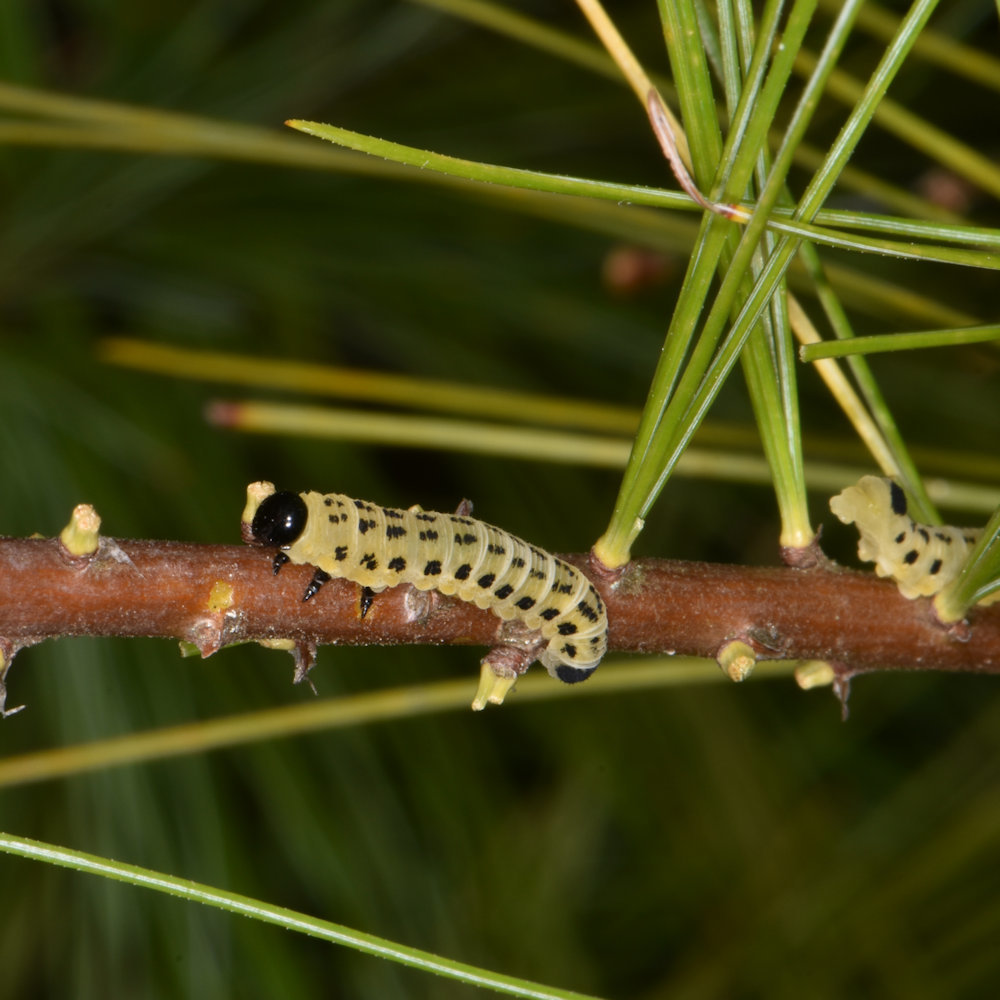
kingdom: Animalia
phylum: Arthropoda
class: Insecta
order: Hymenoptera
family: Diprionidae
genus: Neodiprion
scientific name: Neodiprion pinetum
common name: White pine sawfly
